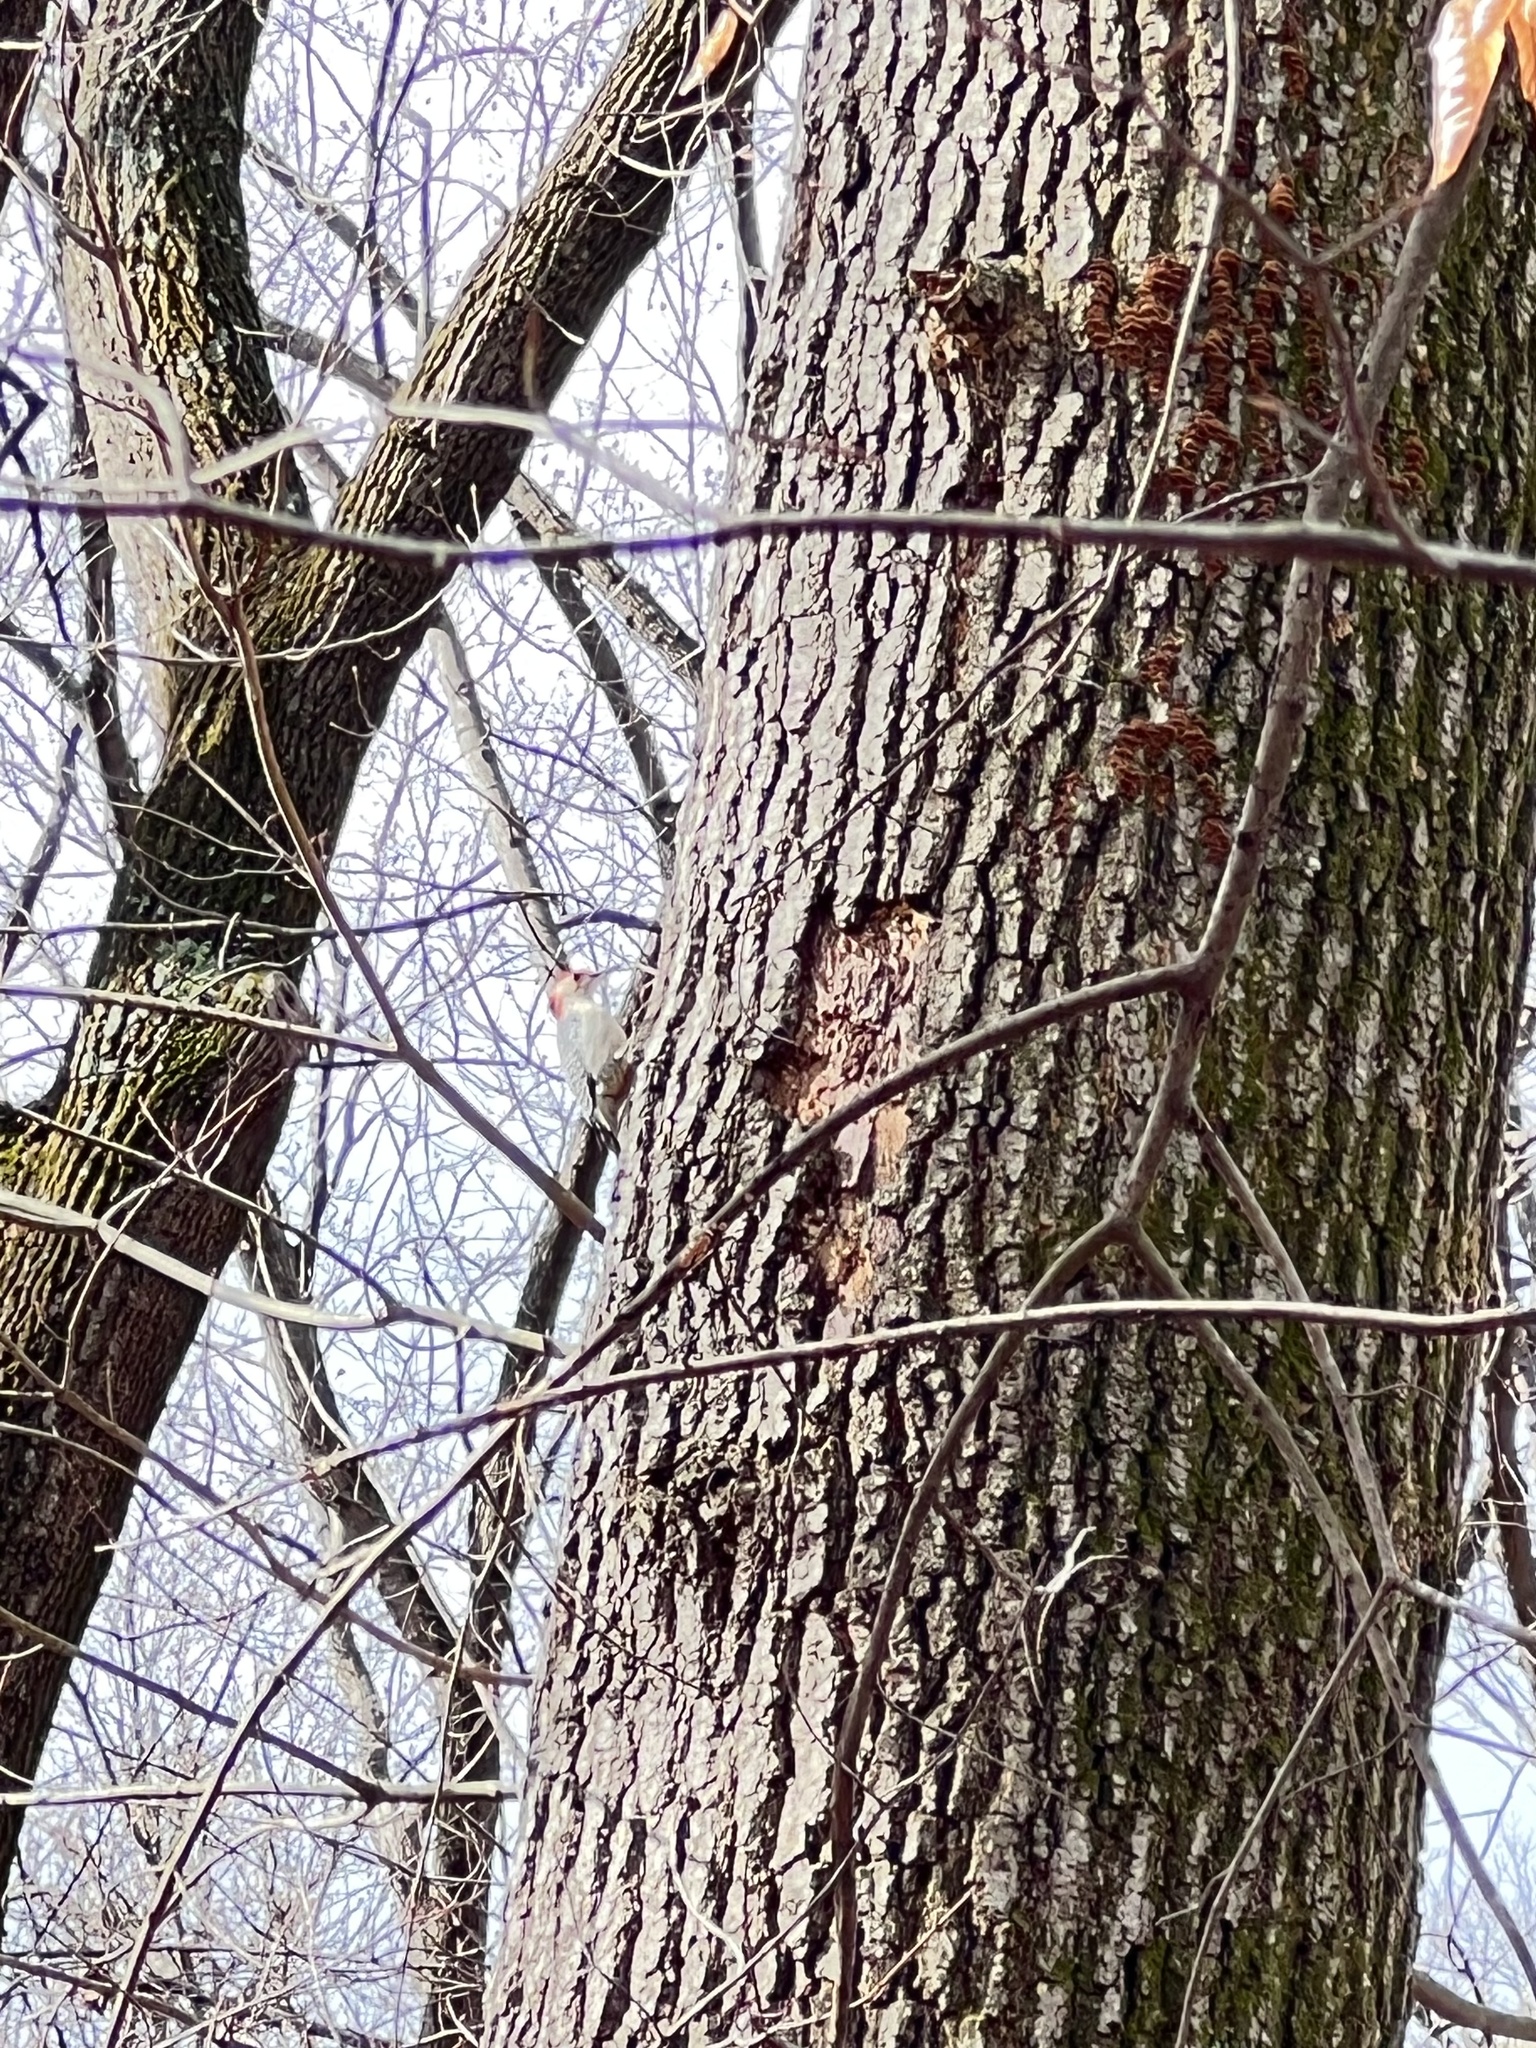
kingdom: Animalia
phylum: Chordata
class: Aves
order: Piciformes
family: Picidae
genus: Melanerpes
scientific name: Melanerpes carolinus
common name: Red-bellied woodpecker
